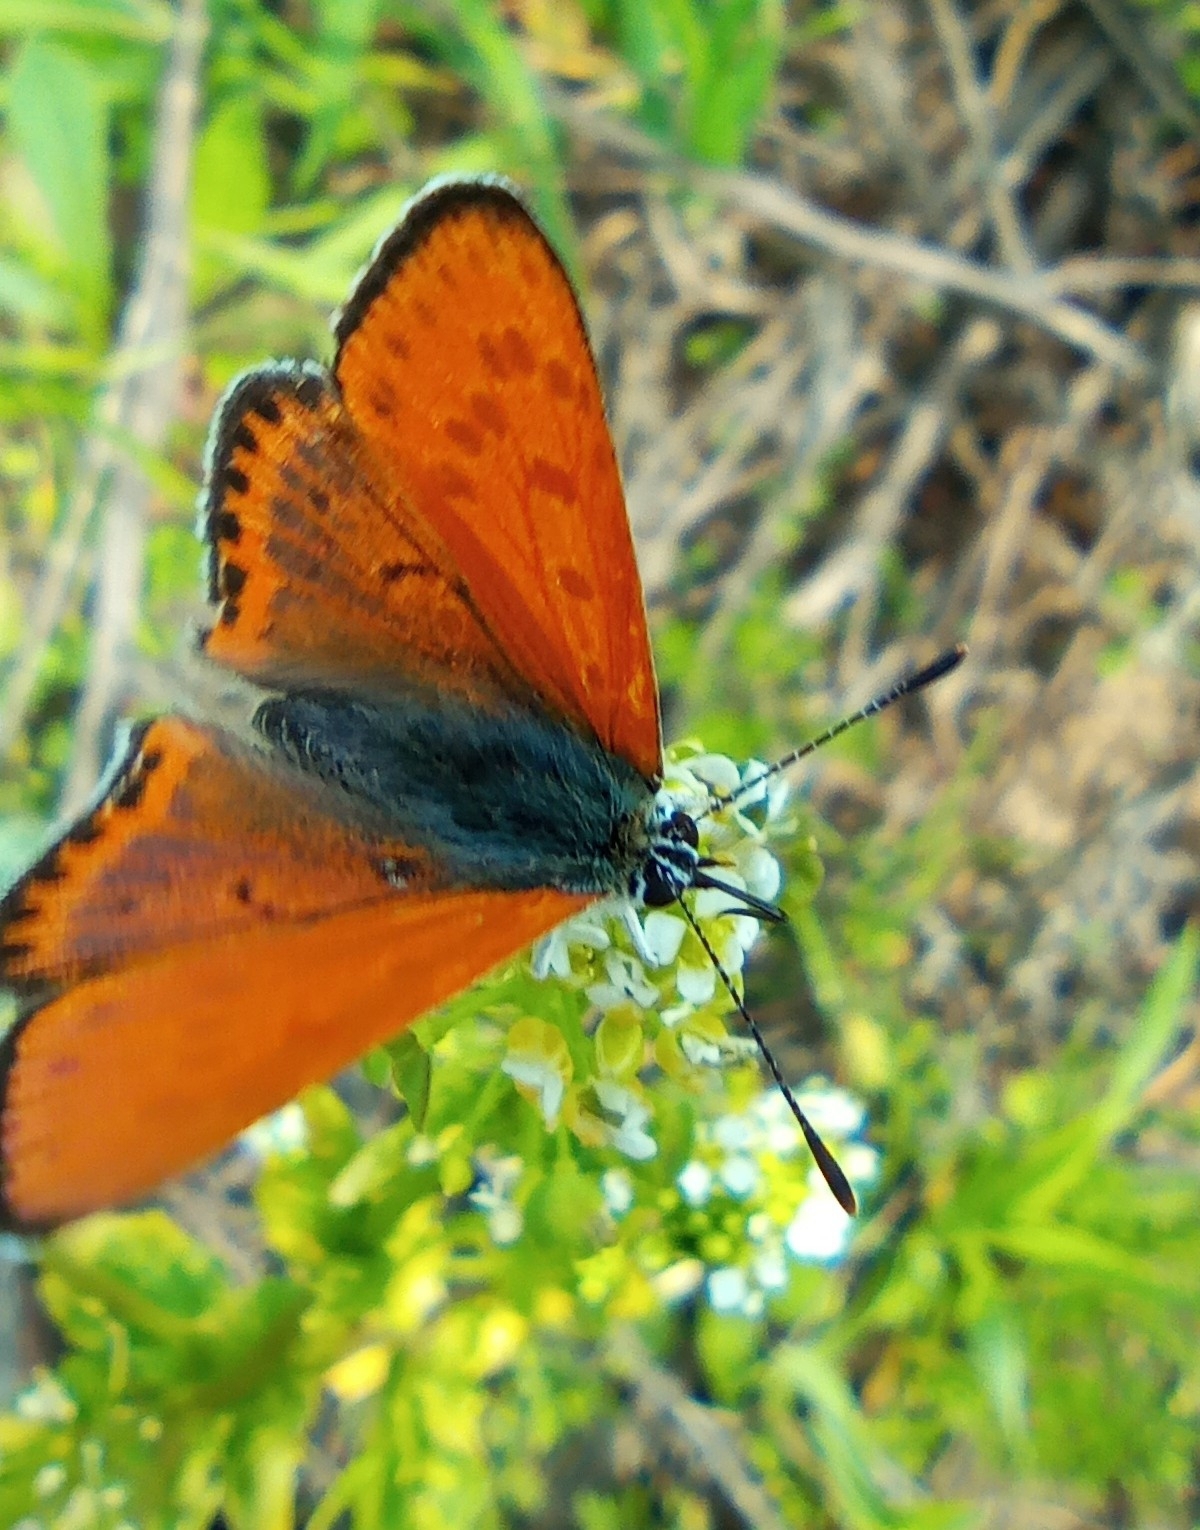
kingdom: Animalia
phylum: Arthropoda
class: Insecta
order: Lepidoptera
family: Lycaenidae
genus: Thersamonia
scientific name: Thersamonia thersamon
